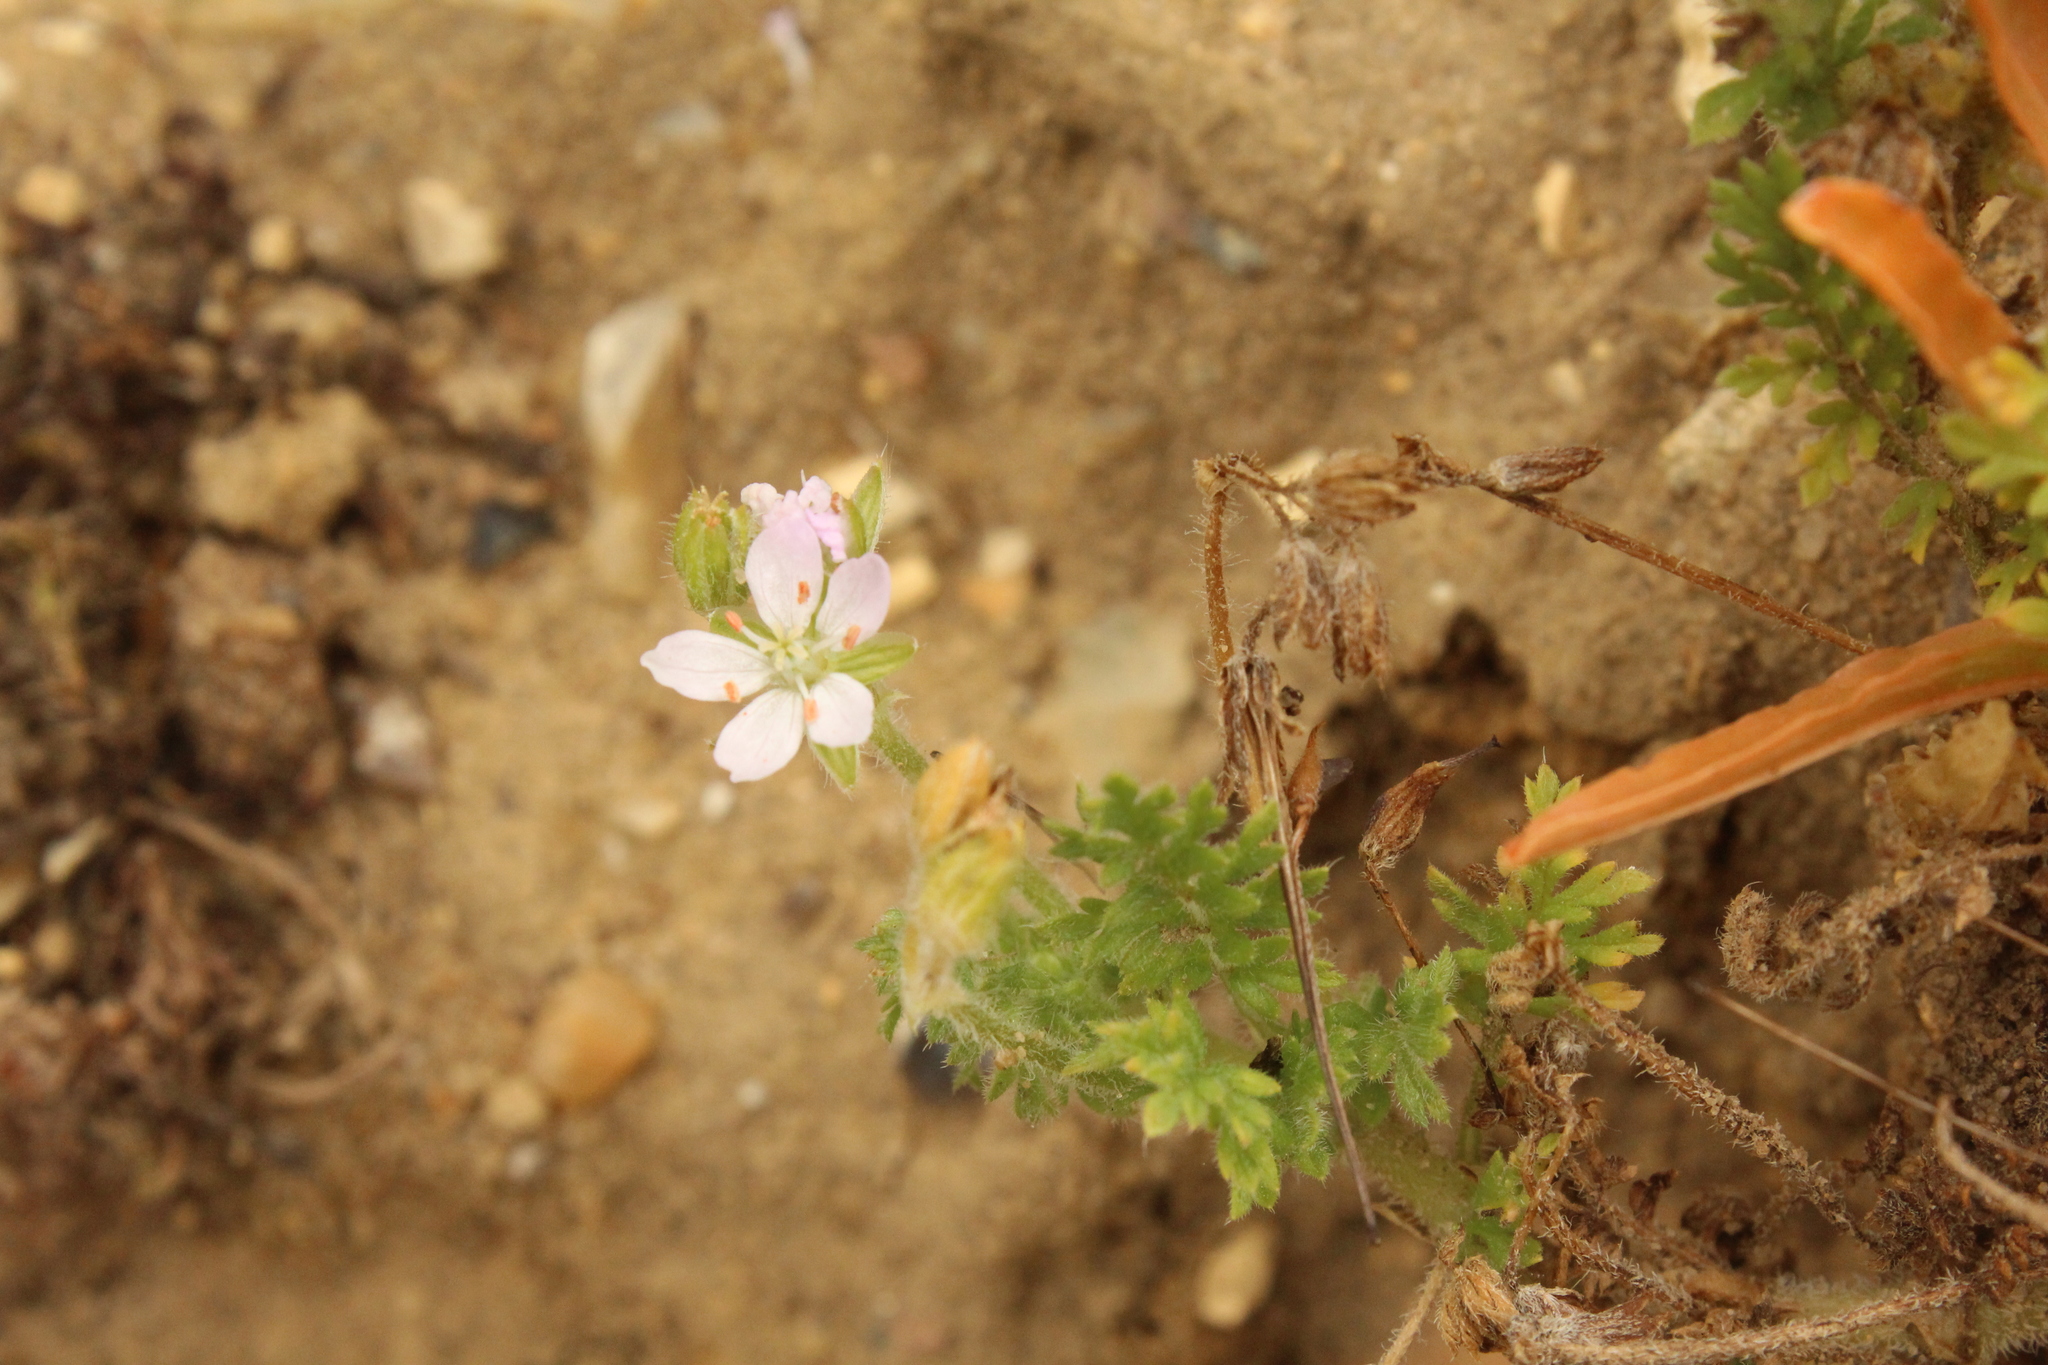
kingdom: Plantae
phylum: Tracheophyta
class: Magnoliopsida
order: Geraniales
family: Geraniaceae
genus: Erodium
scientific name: Erodium cicutarium
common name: Common stork's-bill
